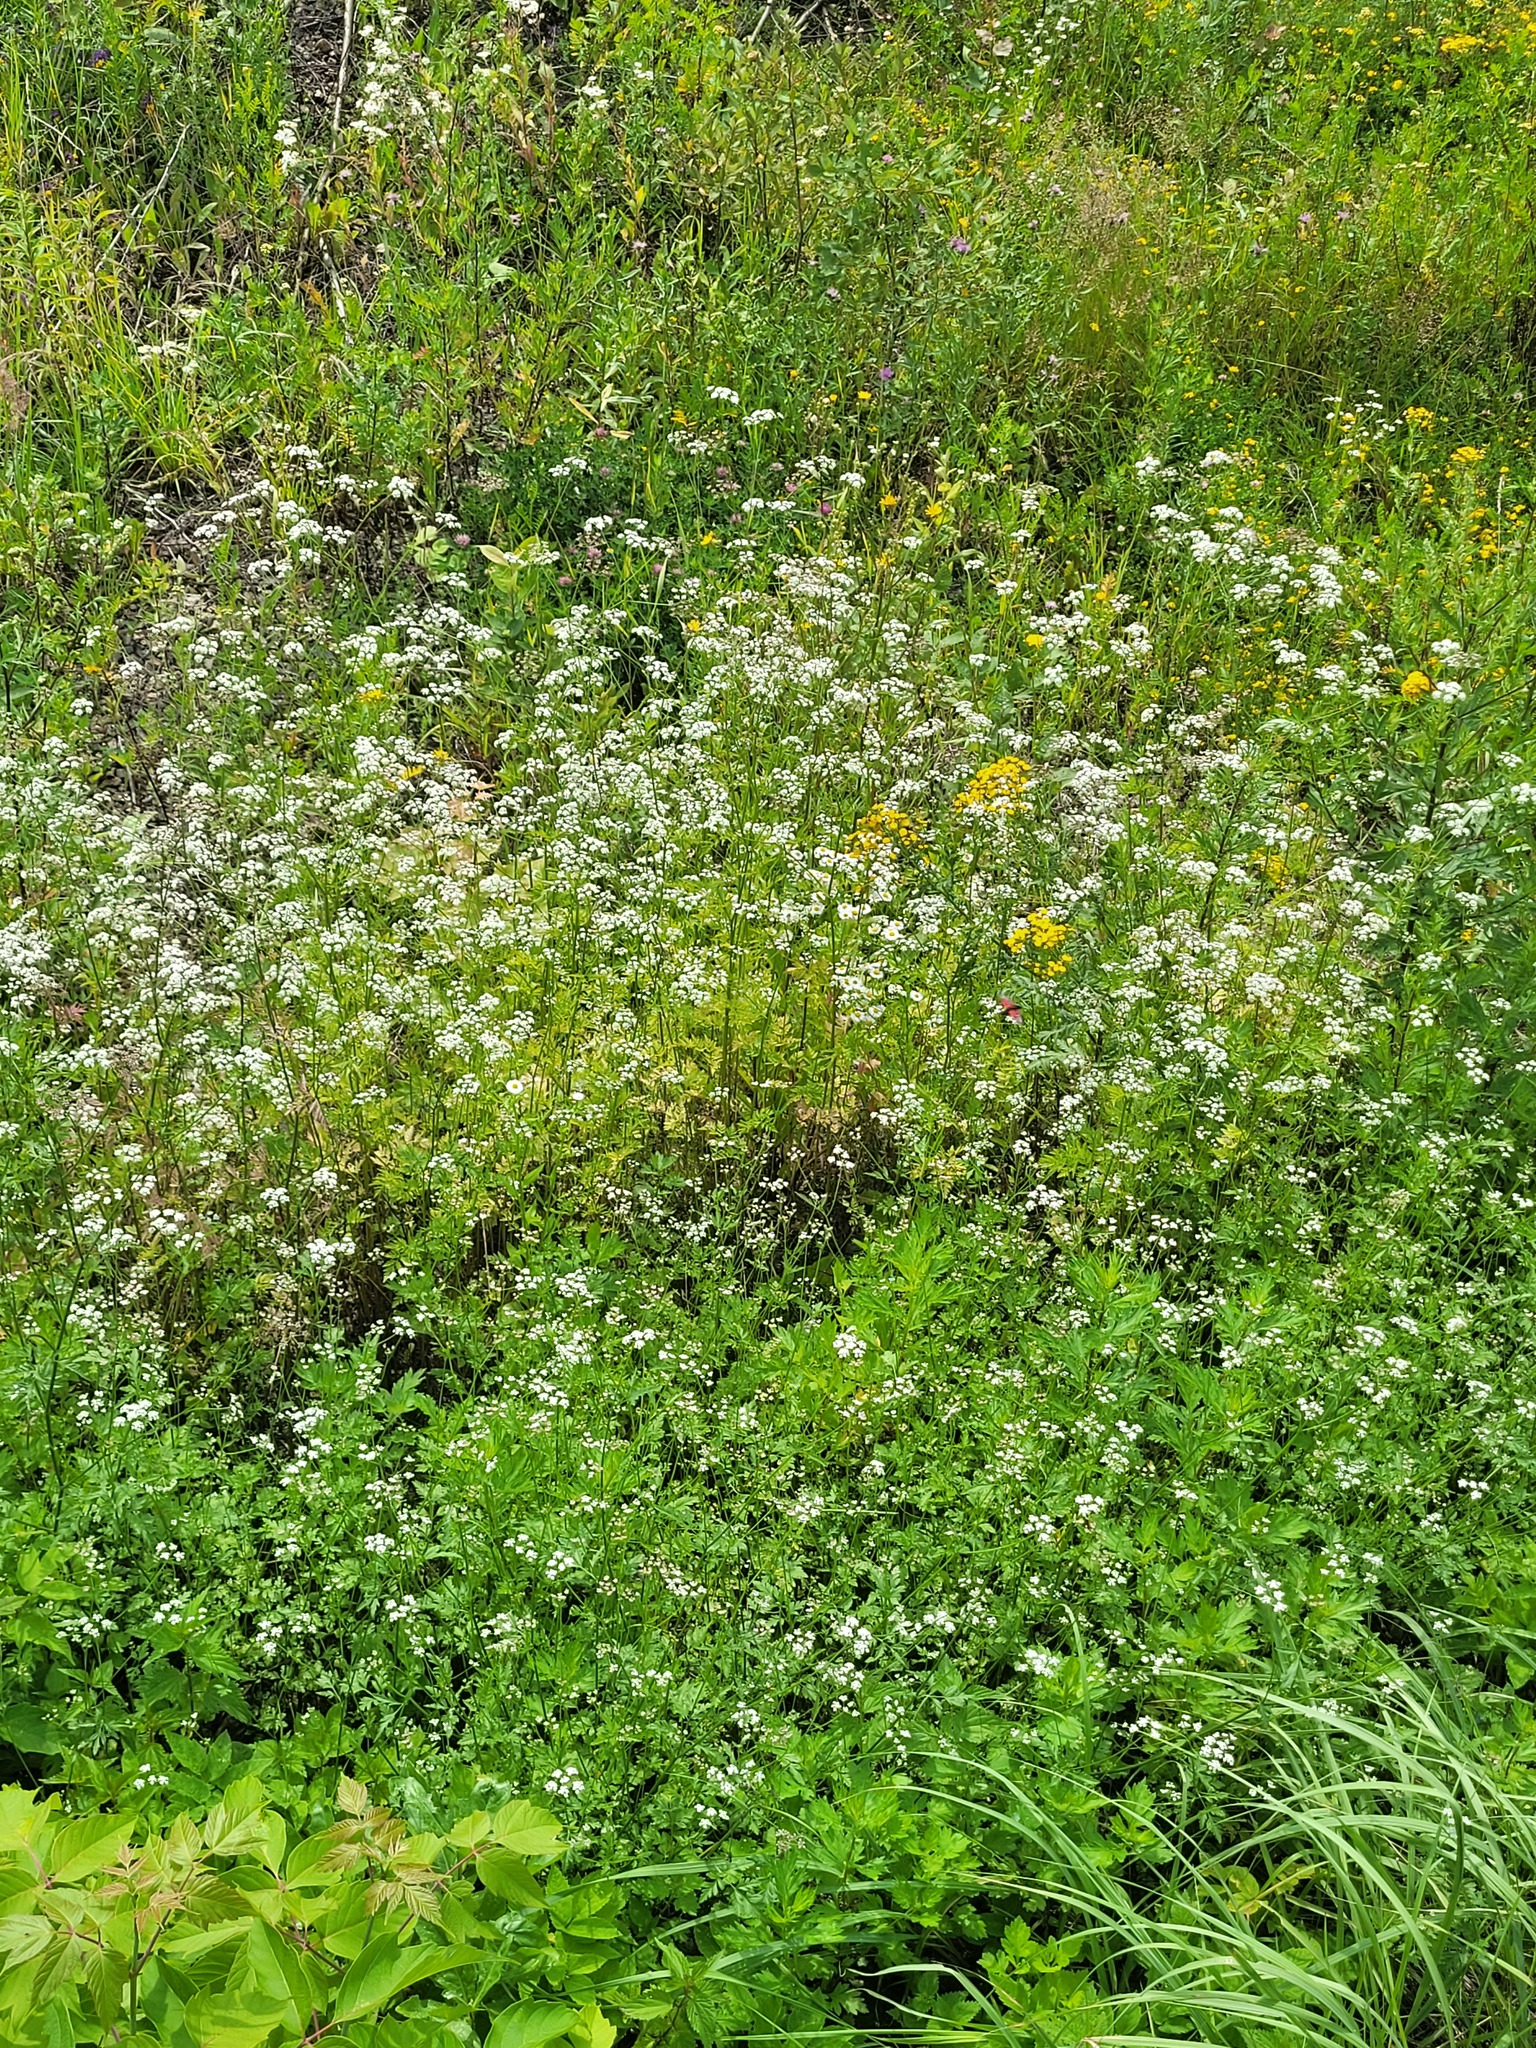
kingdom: Plantae
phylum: Tracheophyta
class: Magnoliopsida
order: Apiales
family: Apiaceae
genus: Torilis
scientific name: Torilis japonica
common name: Upright hedge-parsley
